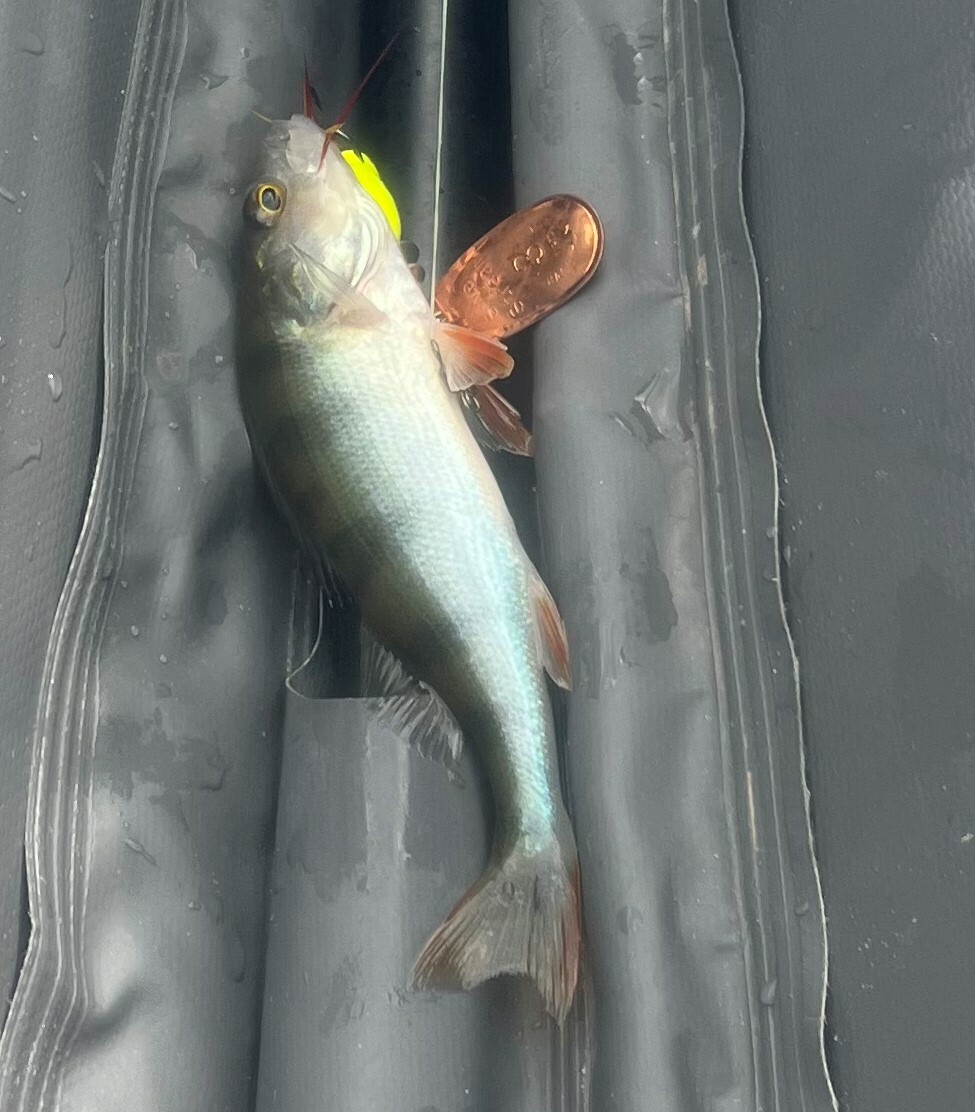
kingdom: Animalia
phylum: Chordata
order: Perciformes
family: Percidae
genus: Perca
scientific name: Perca fluviatilis
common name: Perch
